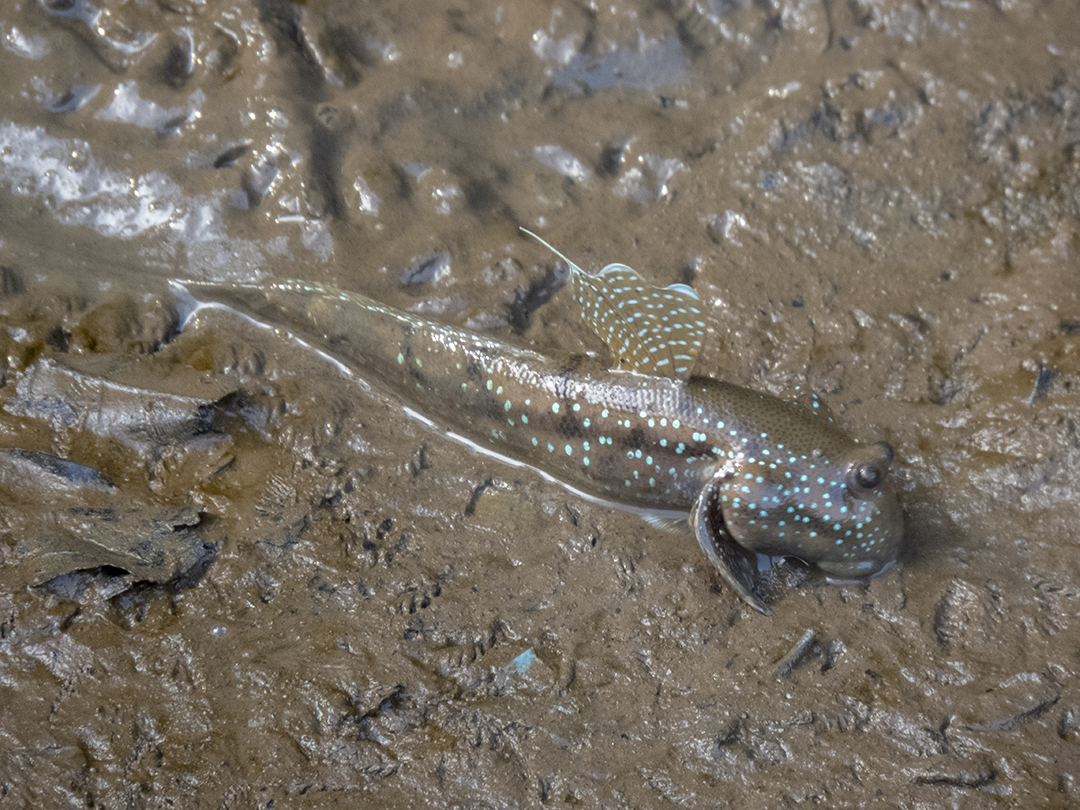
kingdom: Animalia
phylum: Chordata
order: Perciformes
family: Gobiidae
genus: Boleophthalmus
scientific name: Boleophthalmus boddarti
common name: Boddart's goggle-eyed goby
